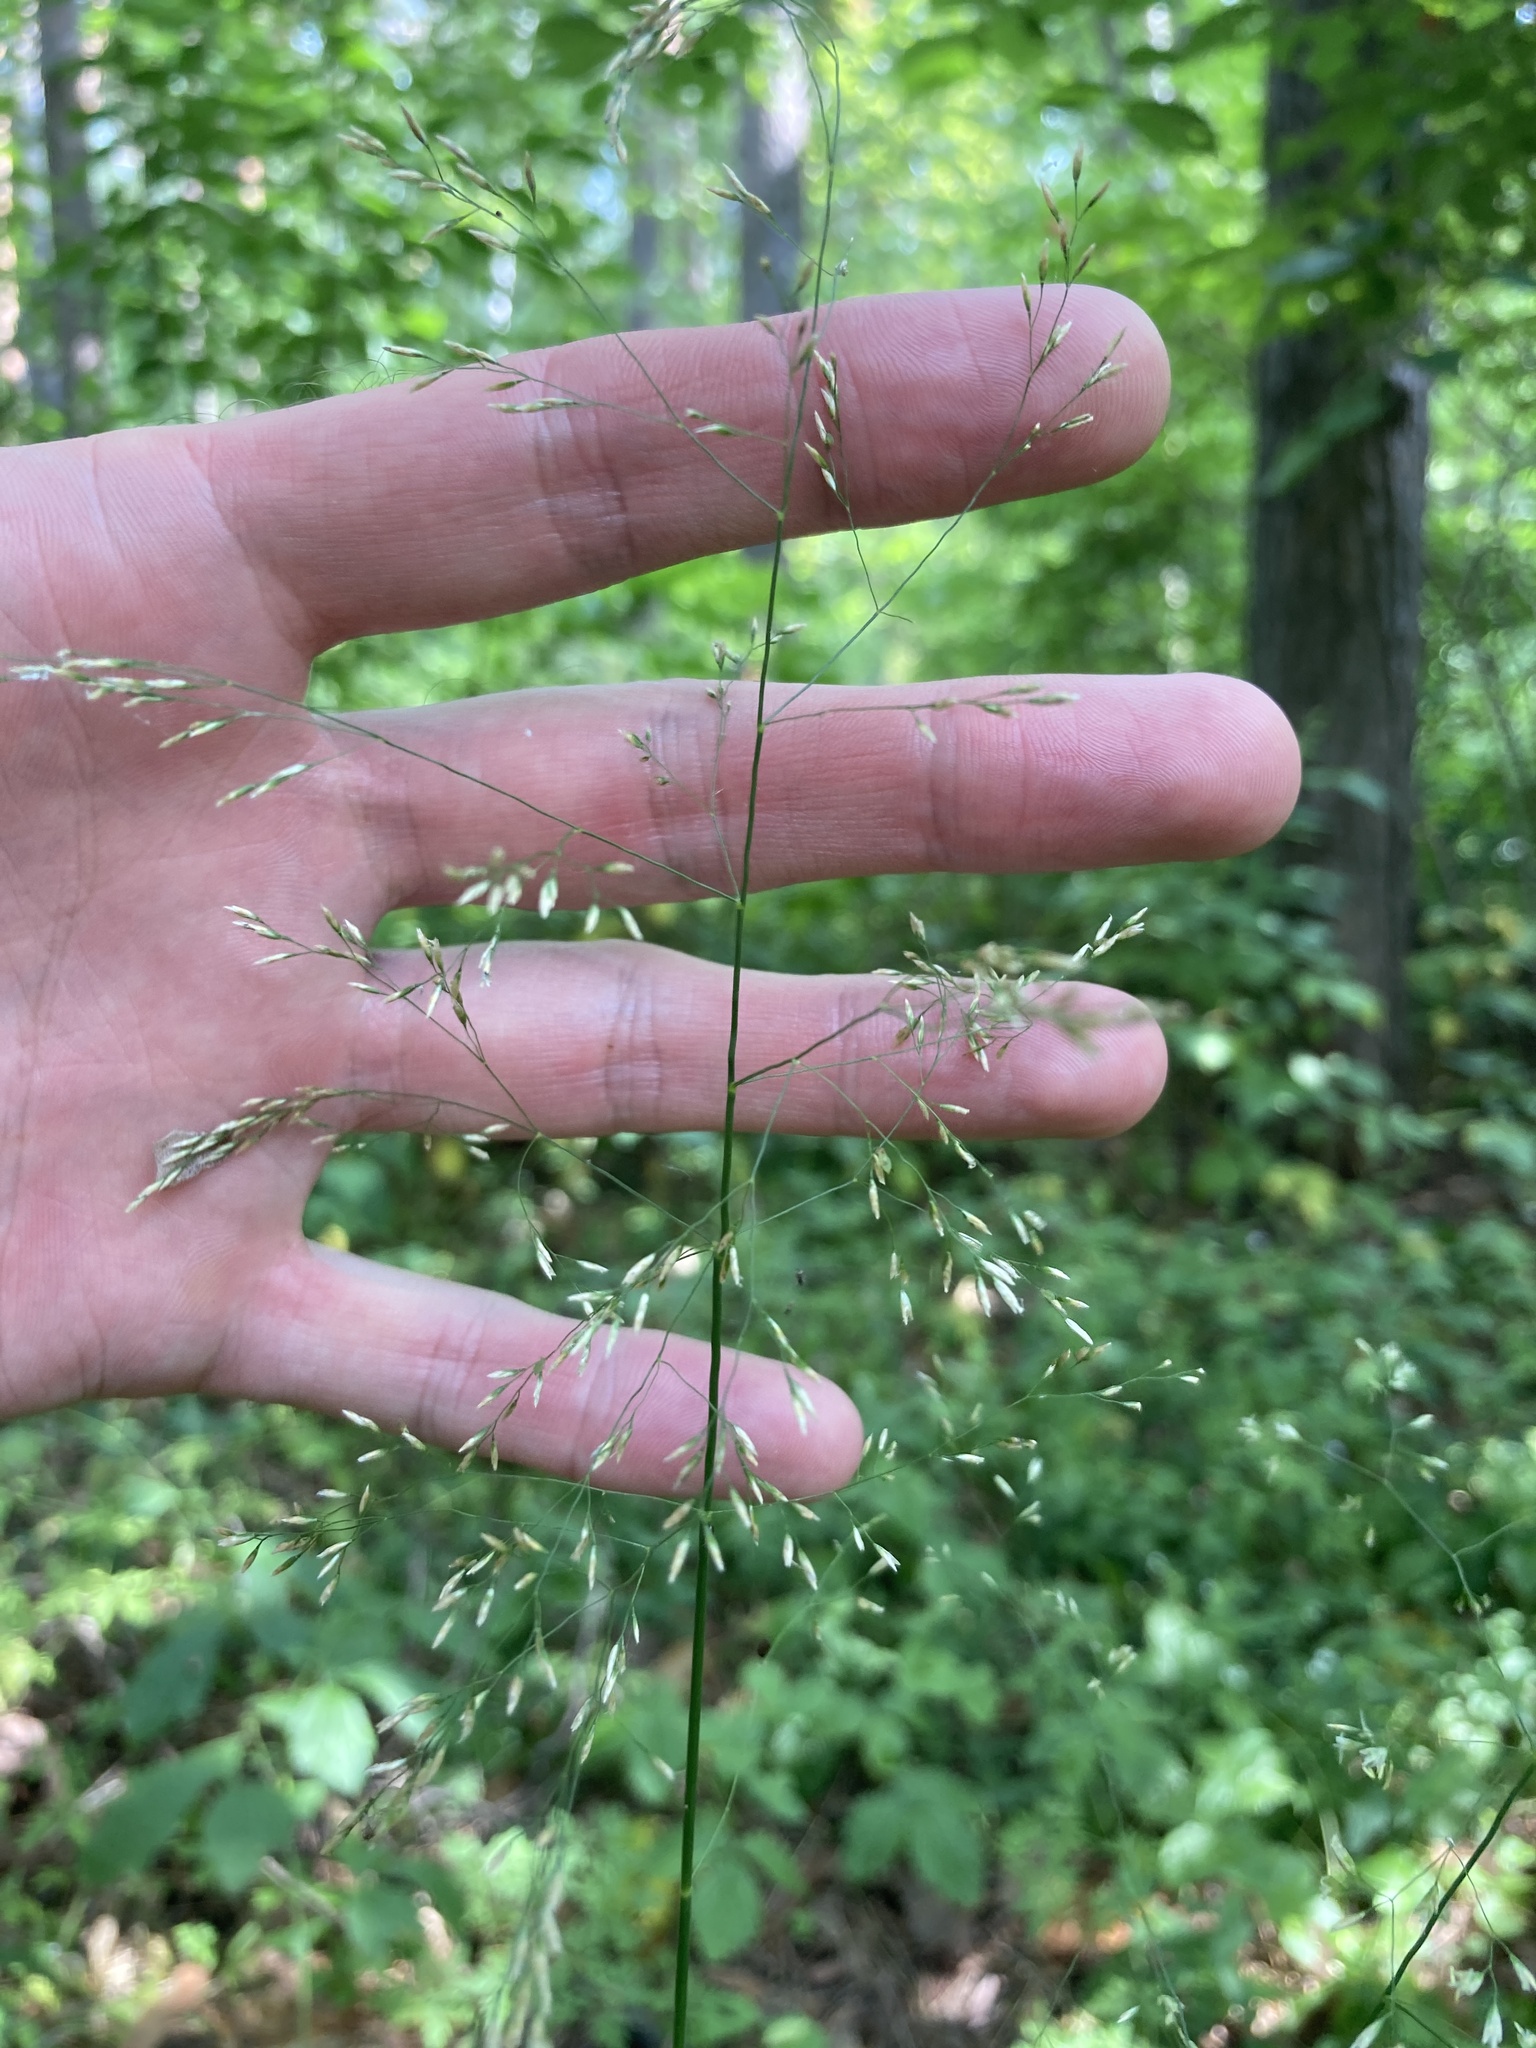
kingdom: Plantae
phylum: Tracheophyta
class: Liliopsida
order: Poales
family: Poaceae
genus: Deschampsia
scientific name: Deschampsia cespitosa
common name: Tufted hair-grass
